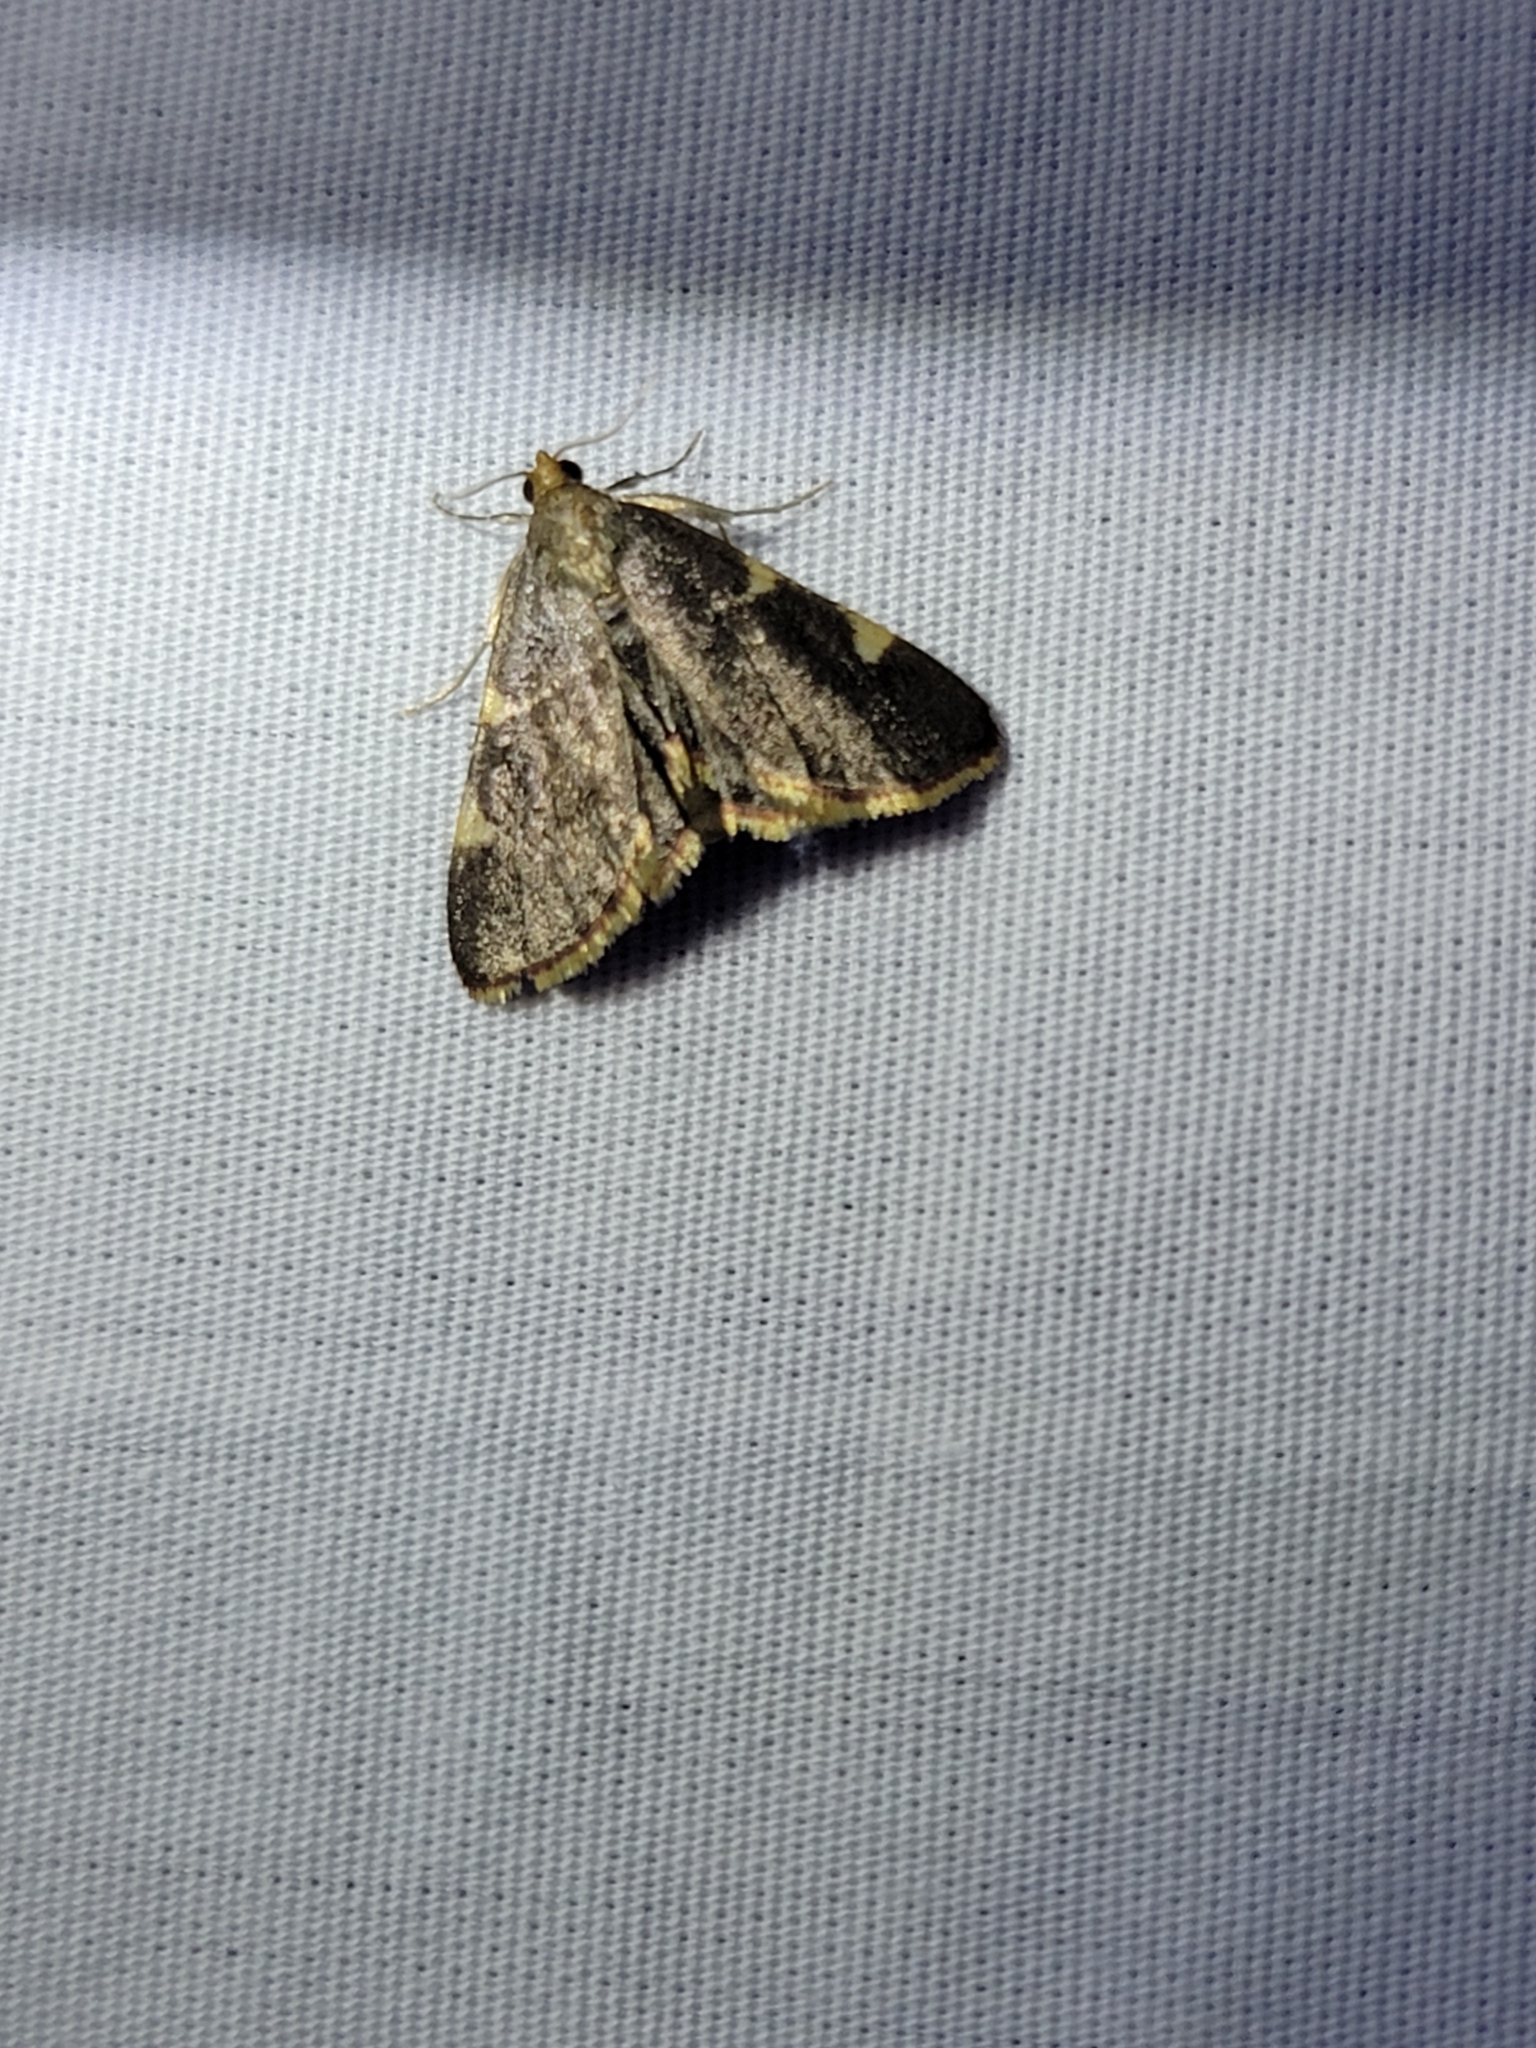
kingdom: Animalia
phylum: Arthropoda
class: Insecta
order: Lepidoptera
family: Pyralidae
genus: Hypsopygia
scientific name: Hypsopygia olinalis
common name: Yellow-fringed dolichomia moth
